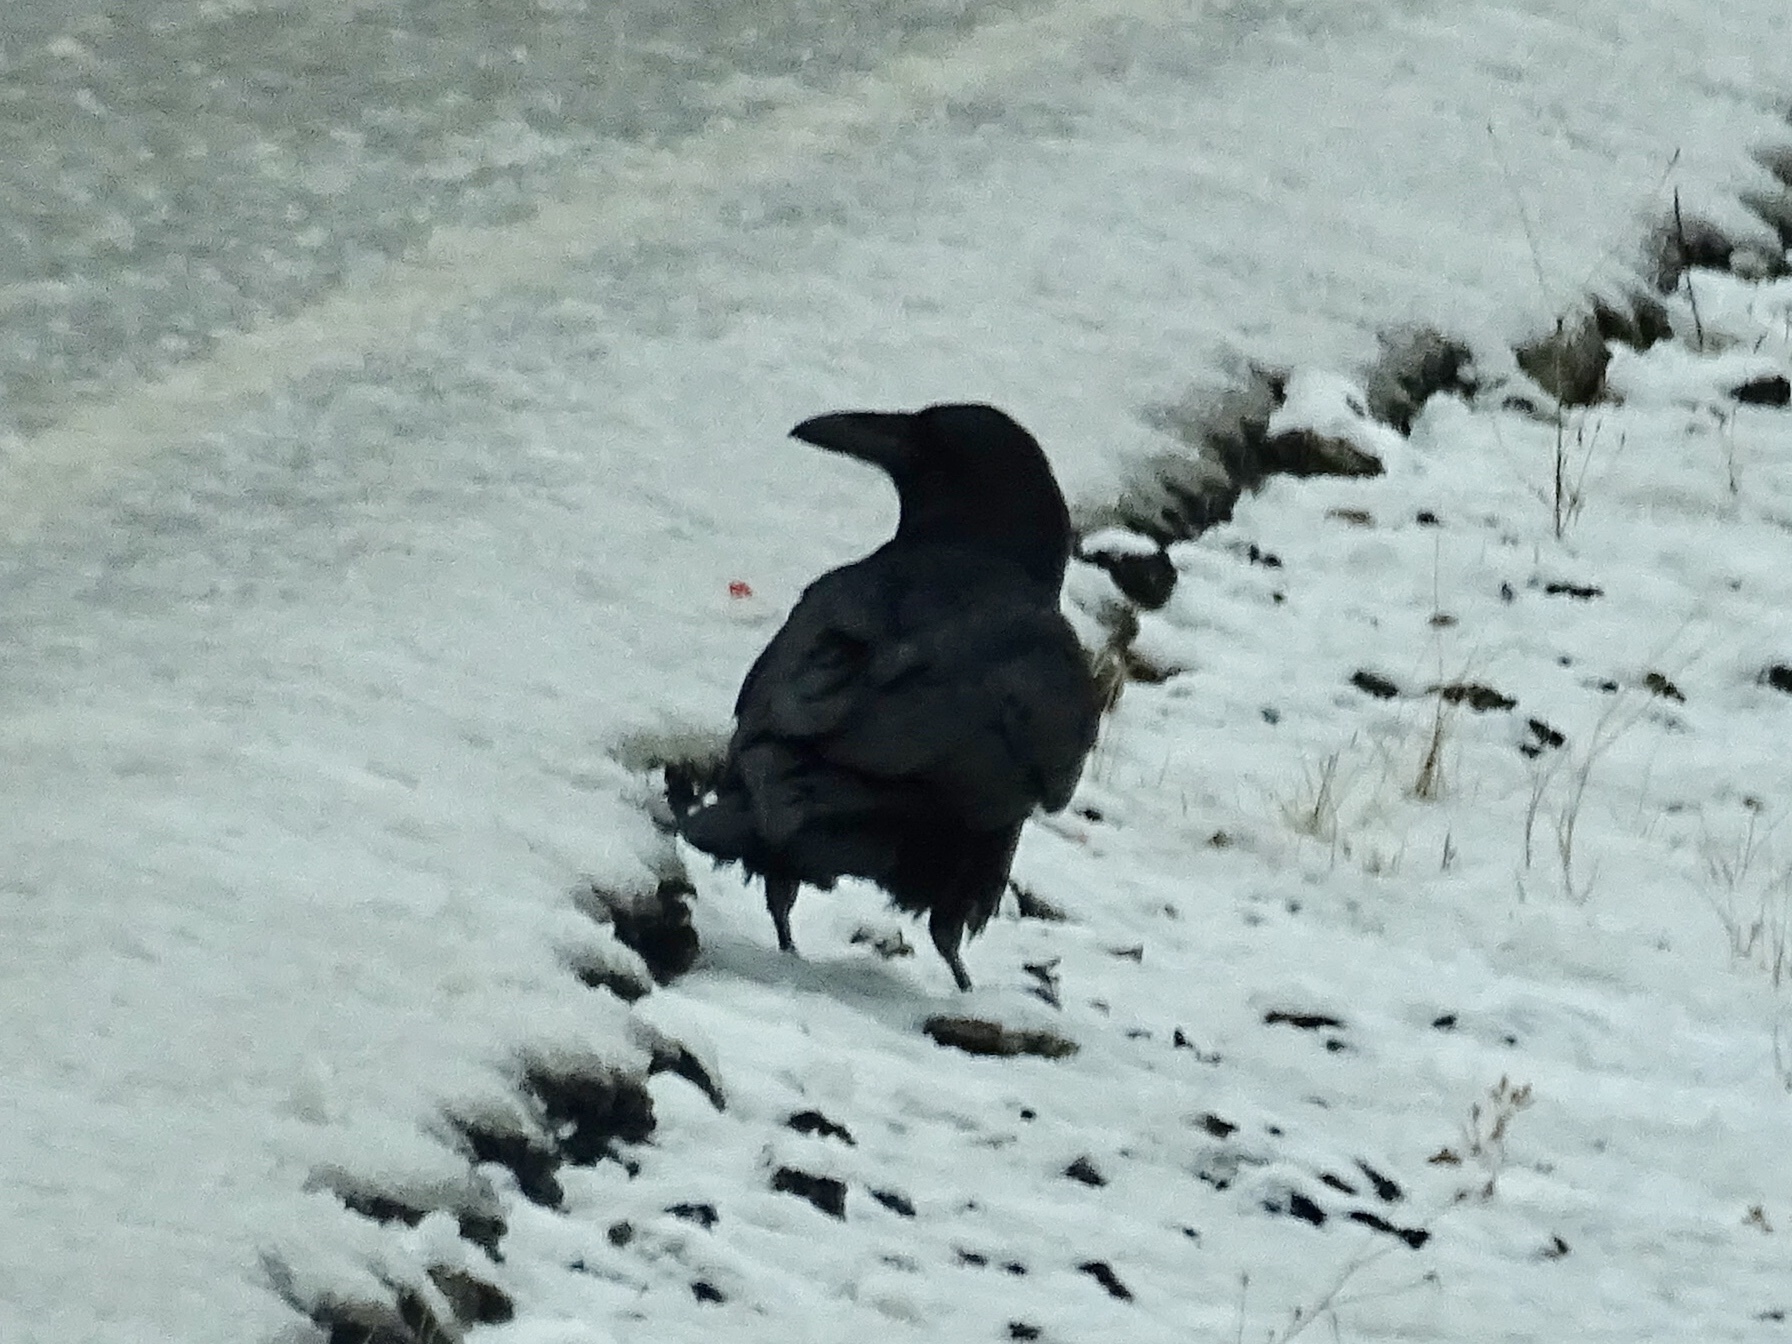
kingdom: Animalia
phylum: Chordata
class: Aves
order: Passeriformes
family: Corvidae
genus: Corvus
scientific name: Corvus corax
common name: Common raven
